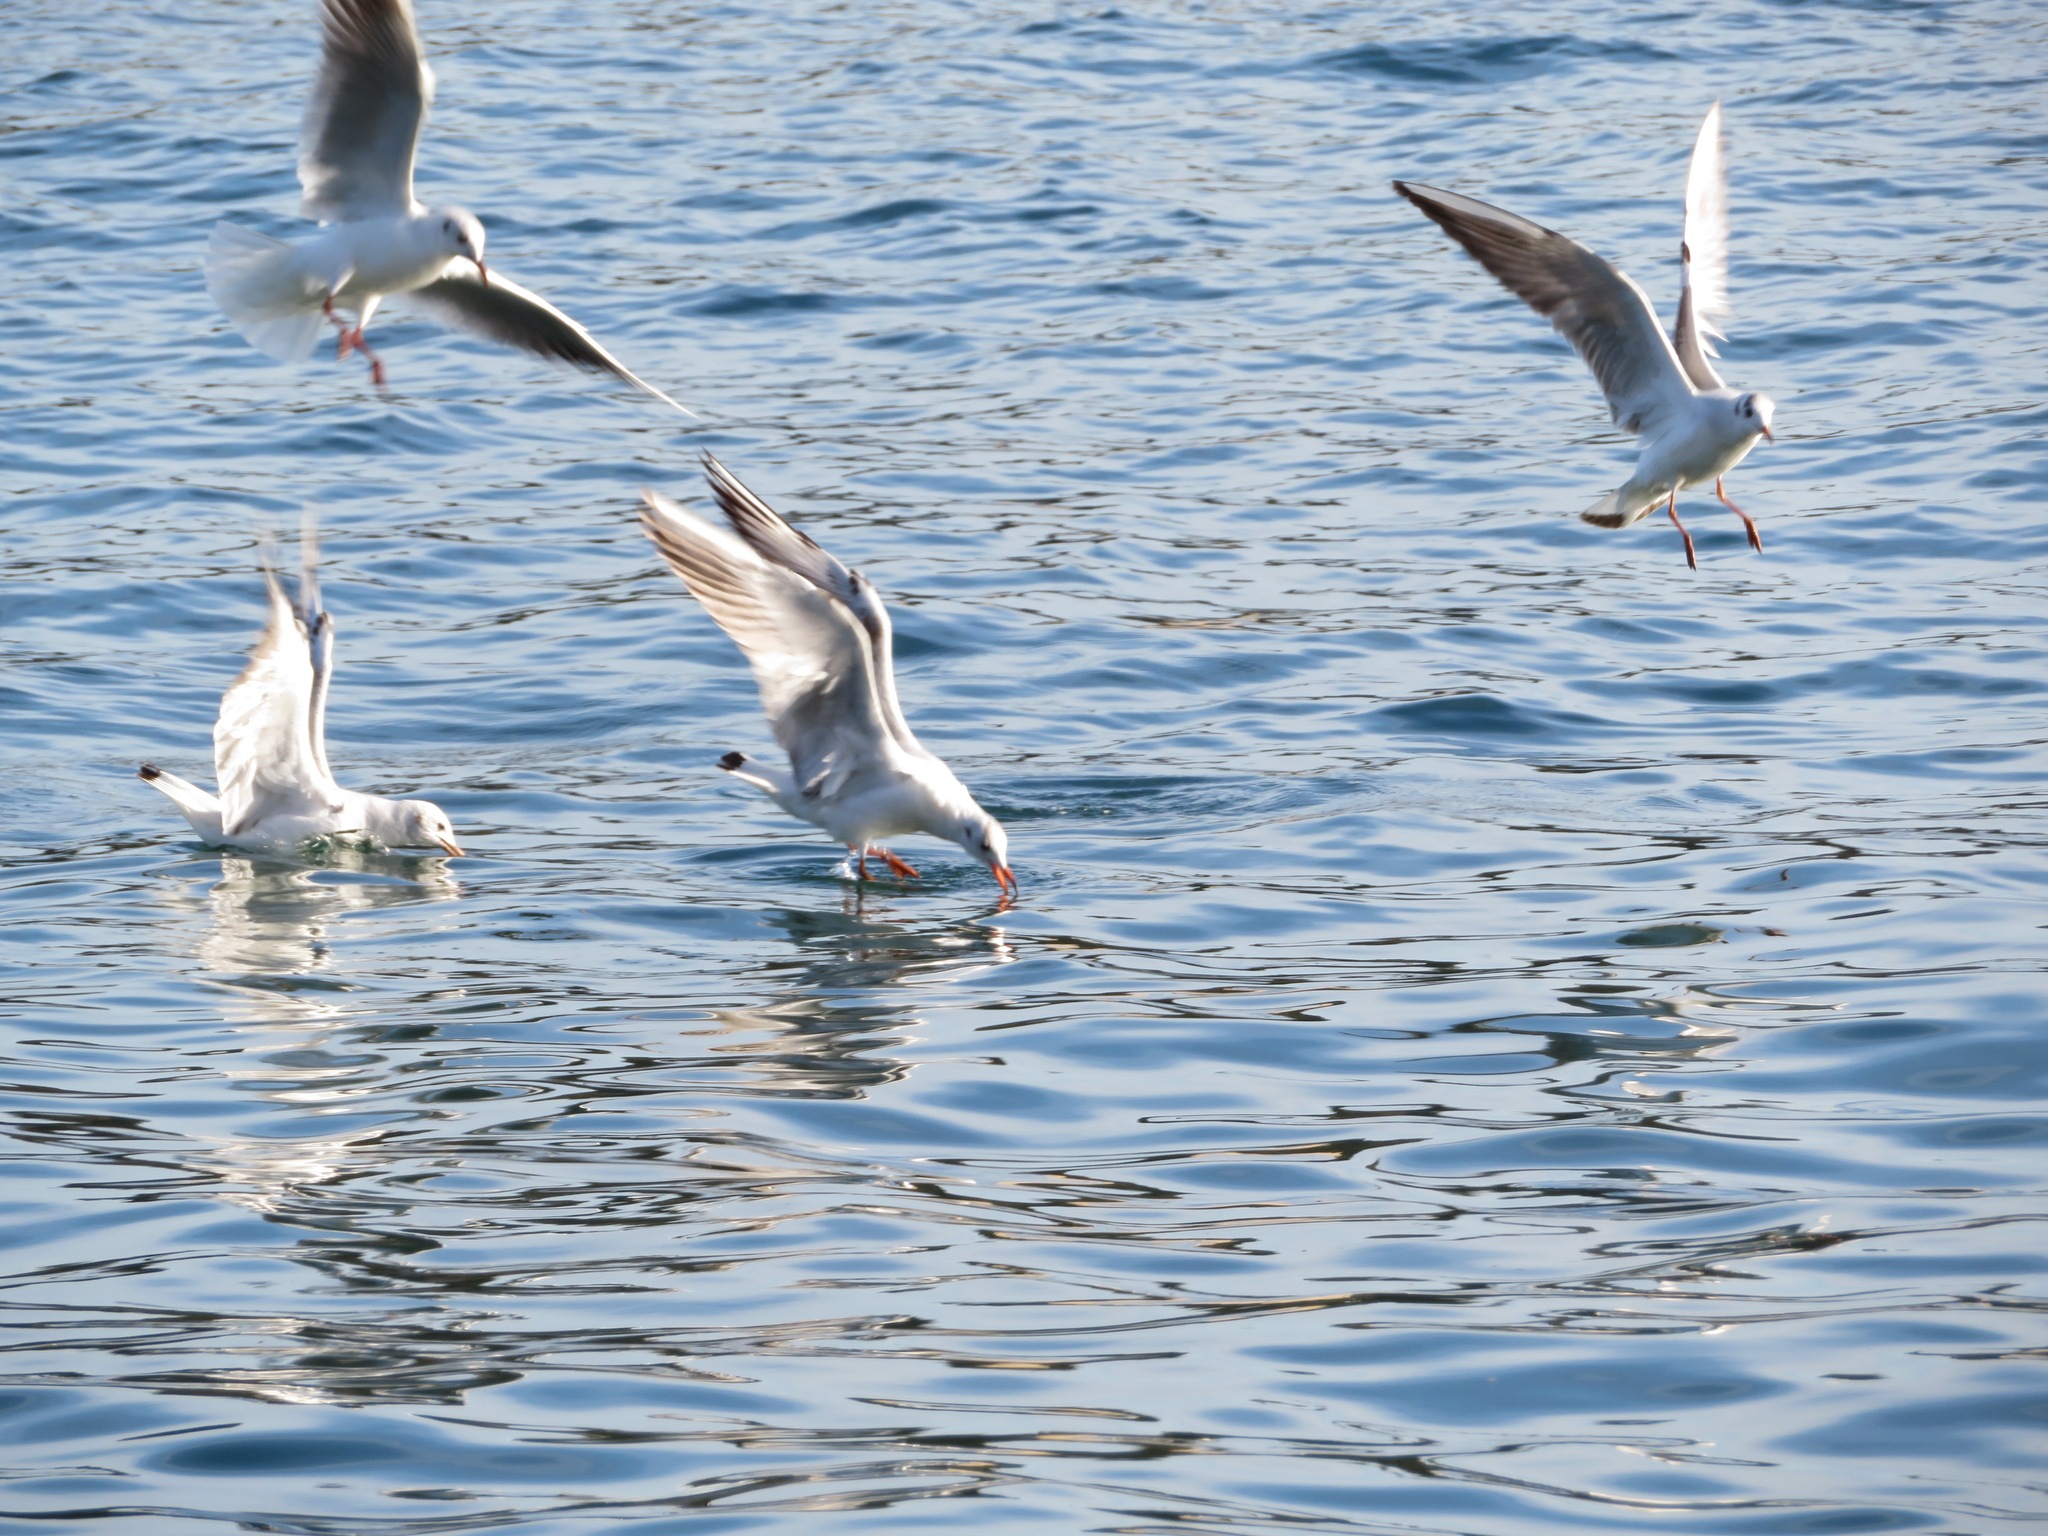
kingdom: Animalia
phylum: Chordata
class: Aves
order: Charadriiformes
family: Laridae
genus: Chroicocephalus
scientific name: Chroicocephalus ridibundus
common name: Black-headed gull
